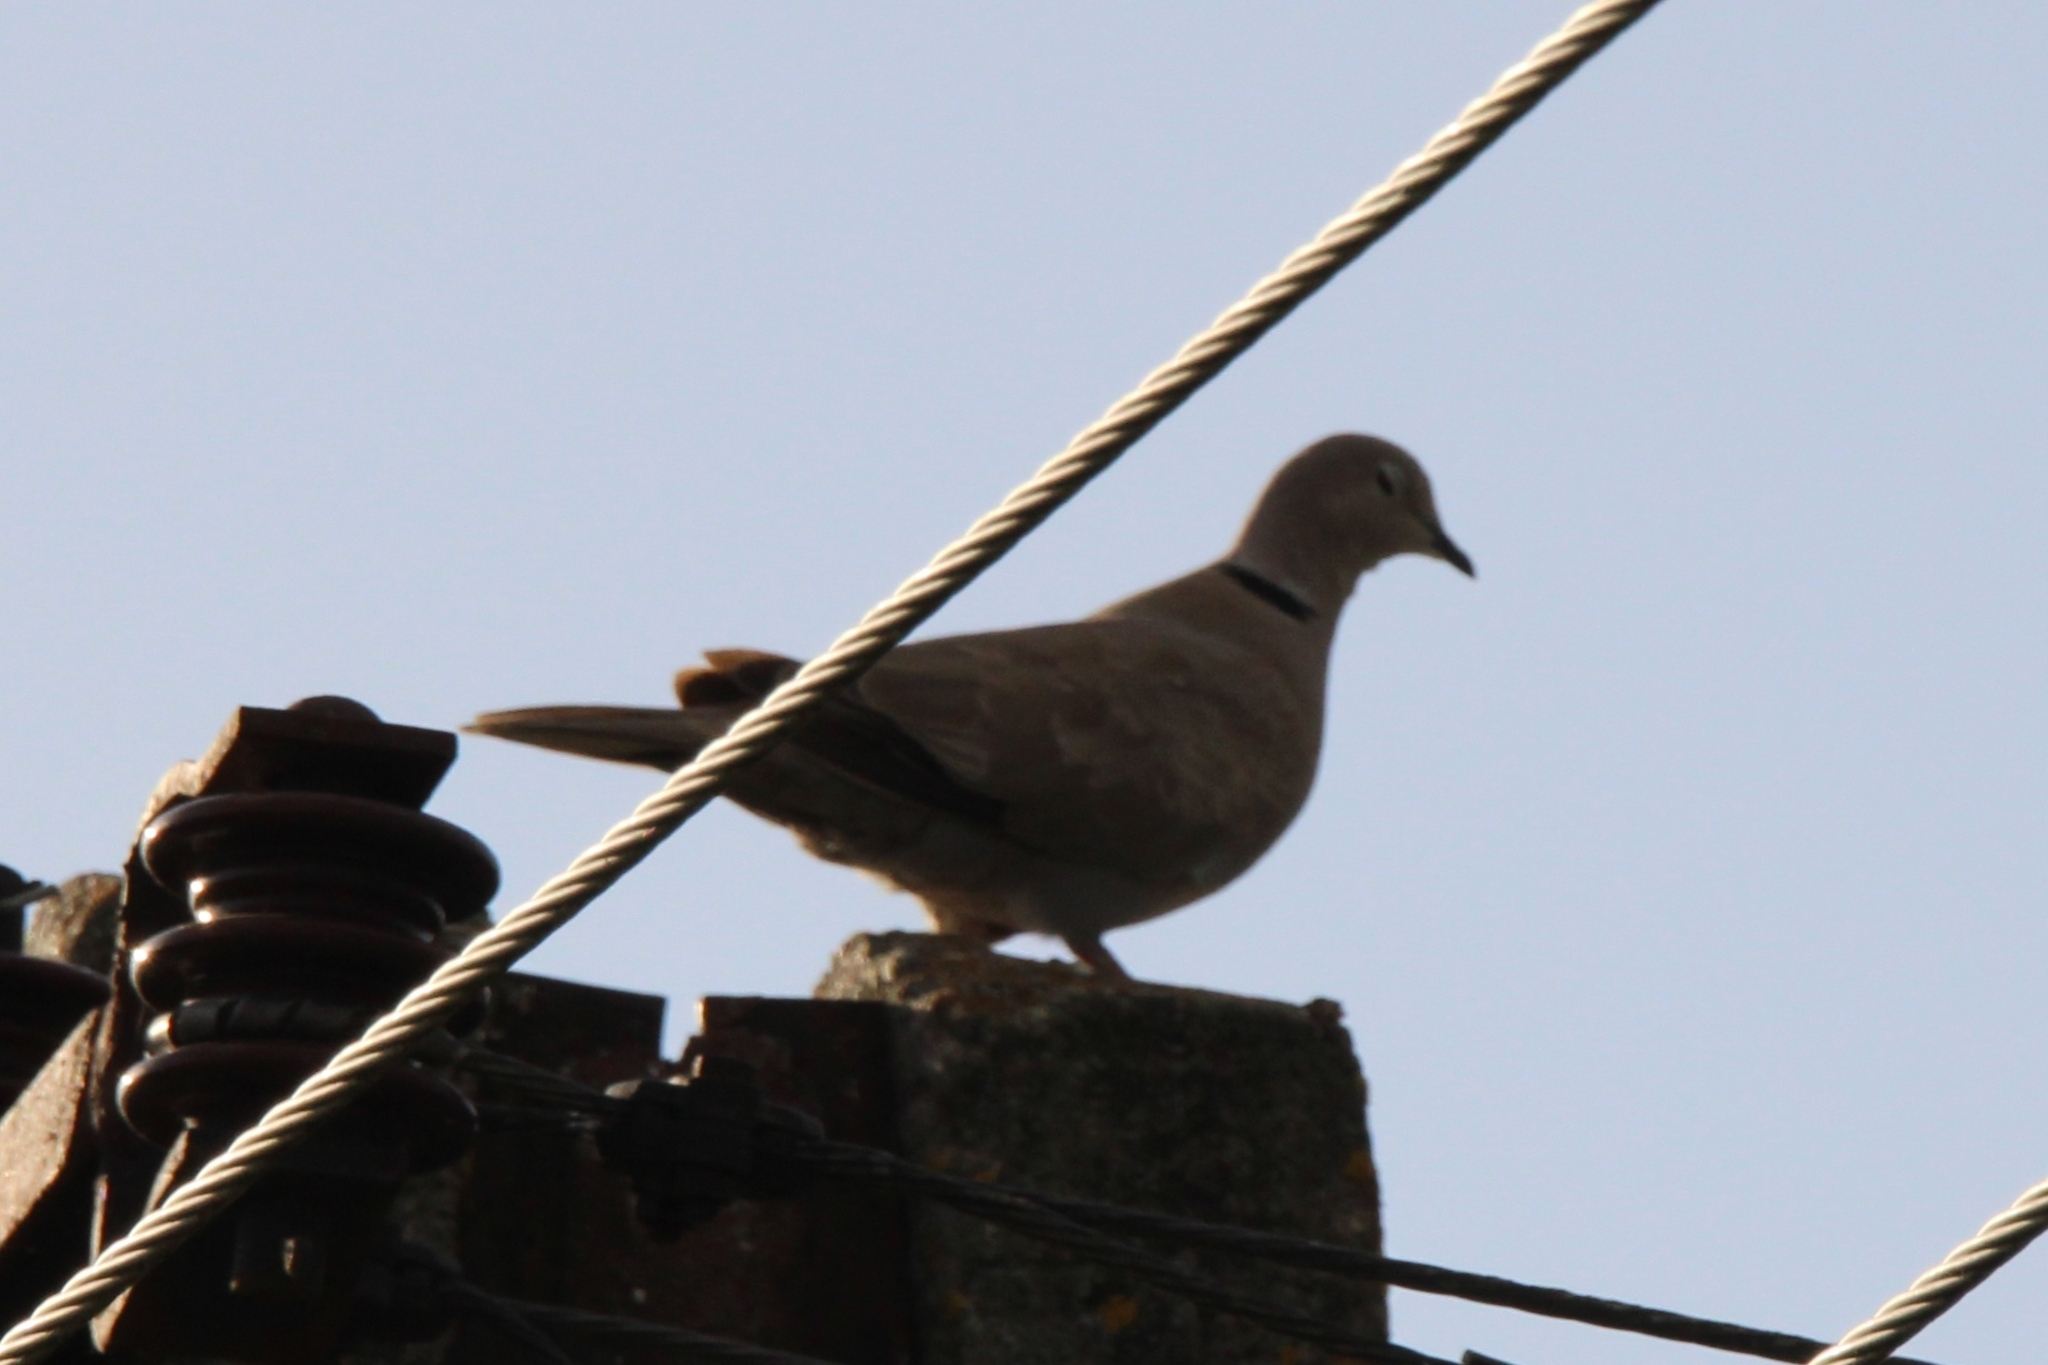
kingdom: Animalia
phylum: Chordata
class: Aves
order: Columbiformes
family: Columbidae
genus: Streptopelia
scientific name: Streptopelia decaocto
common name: Eurasian collared dove
